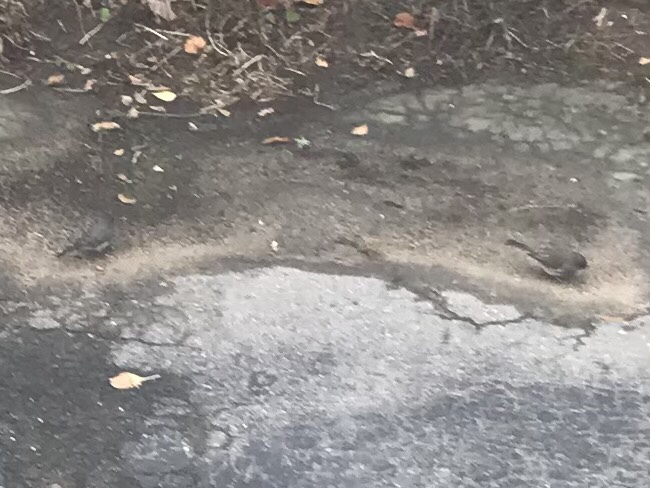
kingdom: Animalia
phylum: Chordata
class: Aves
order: Passeriformes
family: Passerellidae
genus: Junco
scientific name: Junco hyemalis
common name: Dark-eyed junco
